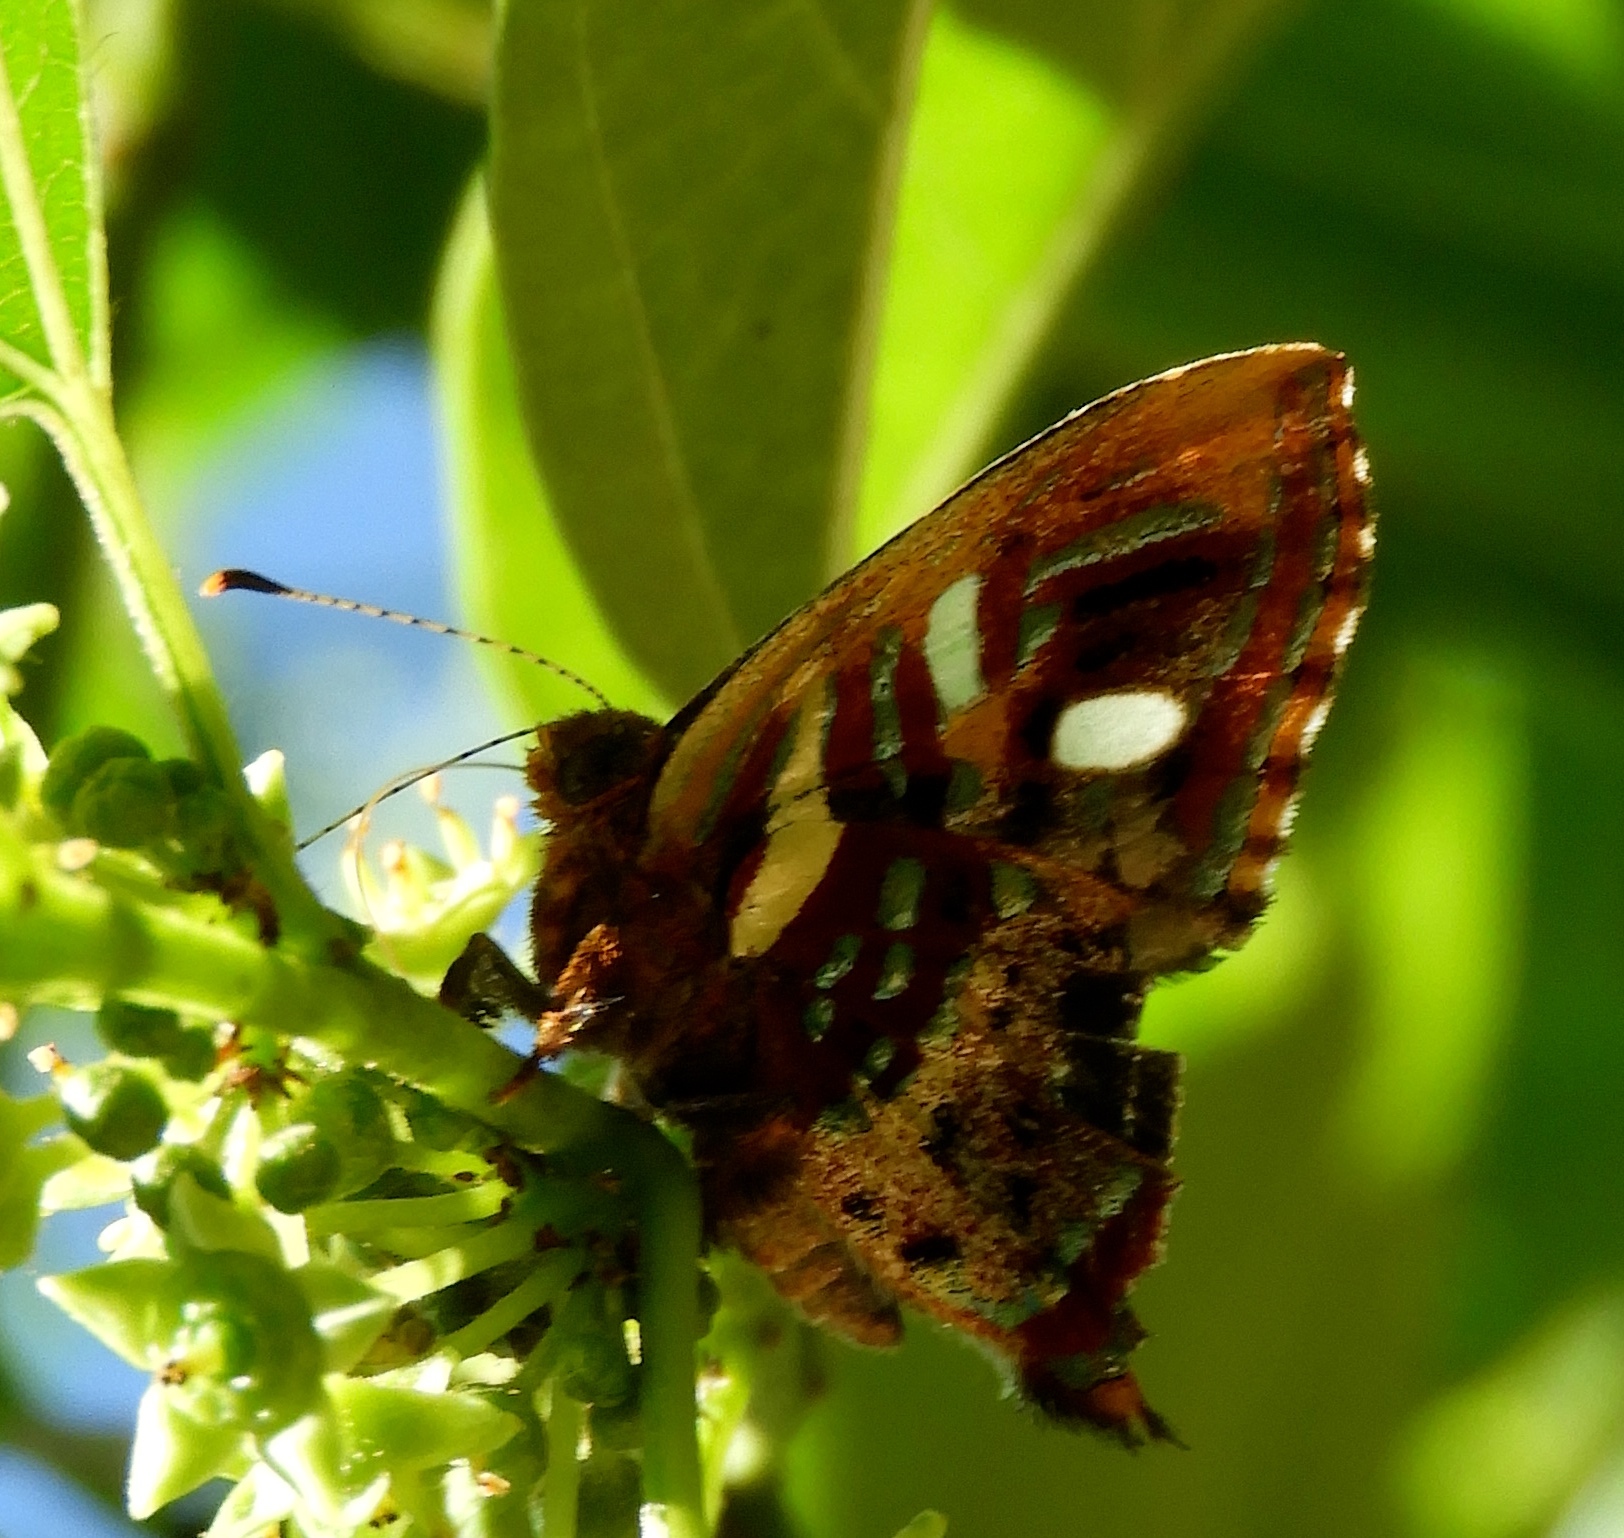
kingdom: Animalia
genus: Anteros
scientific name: Anteros carausius
